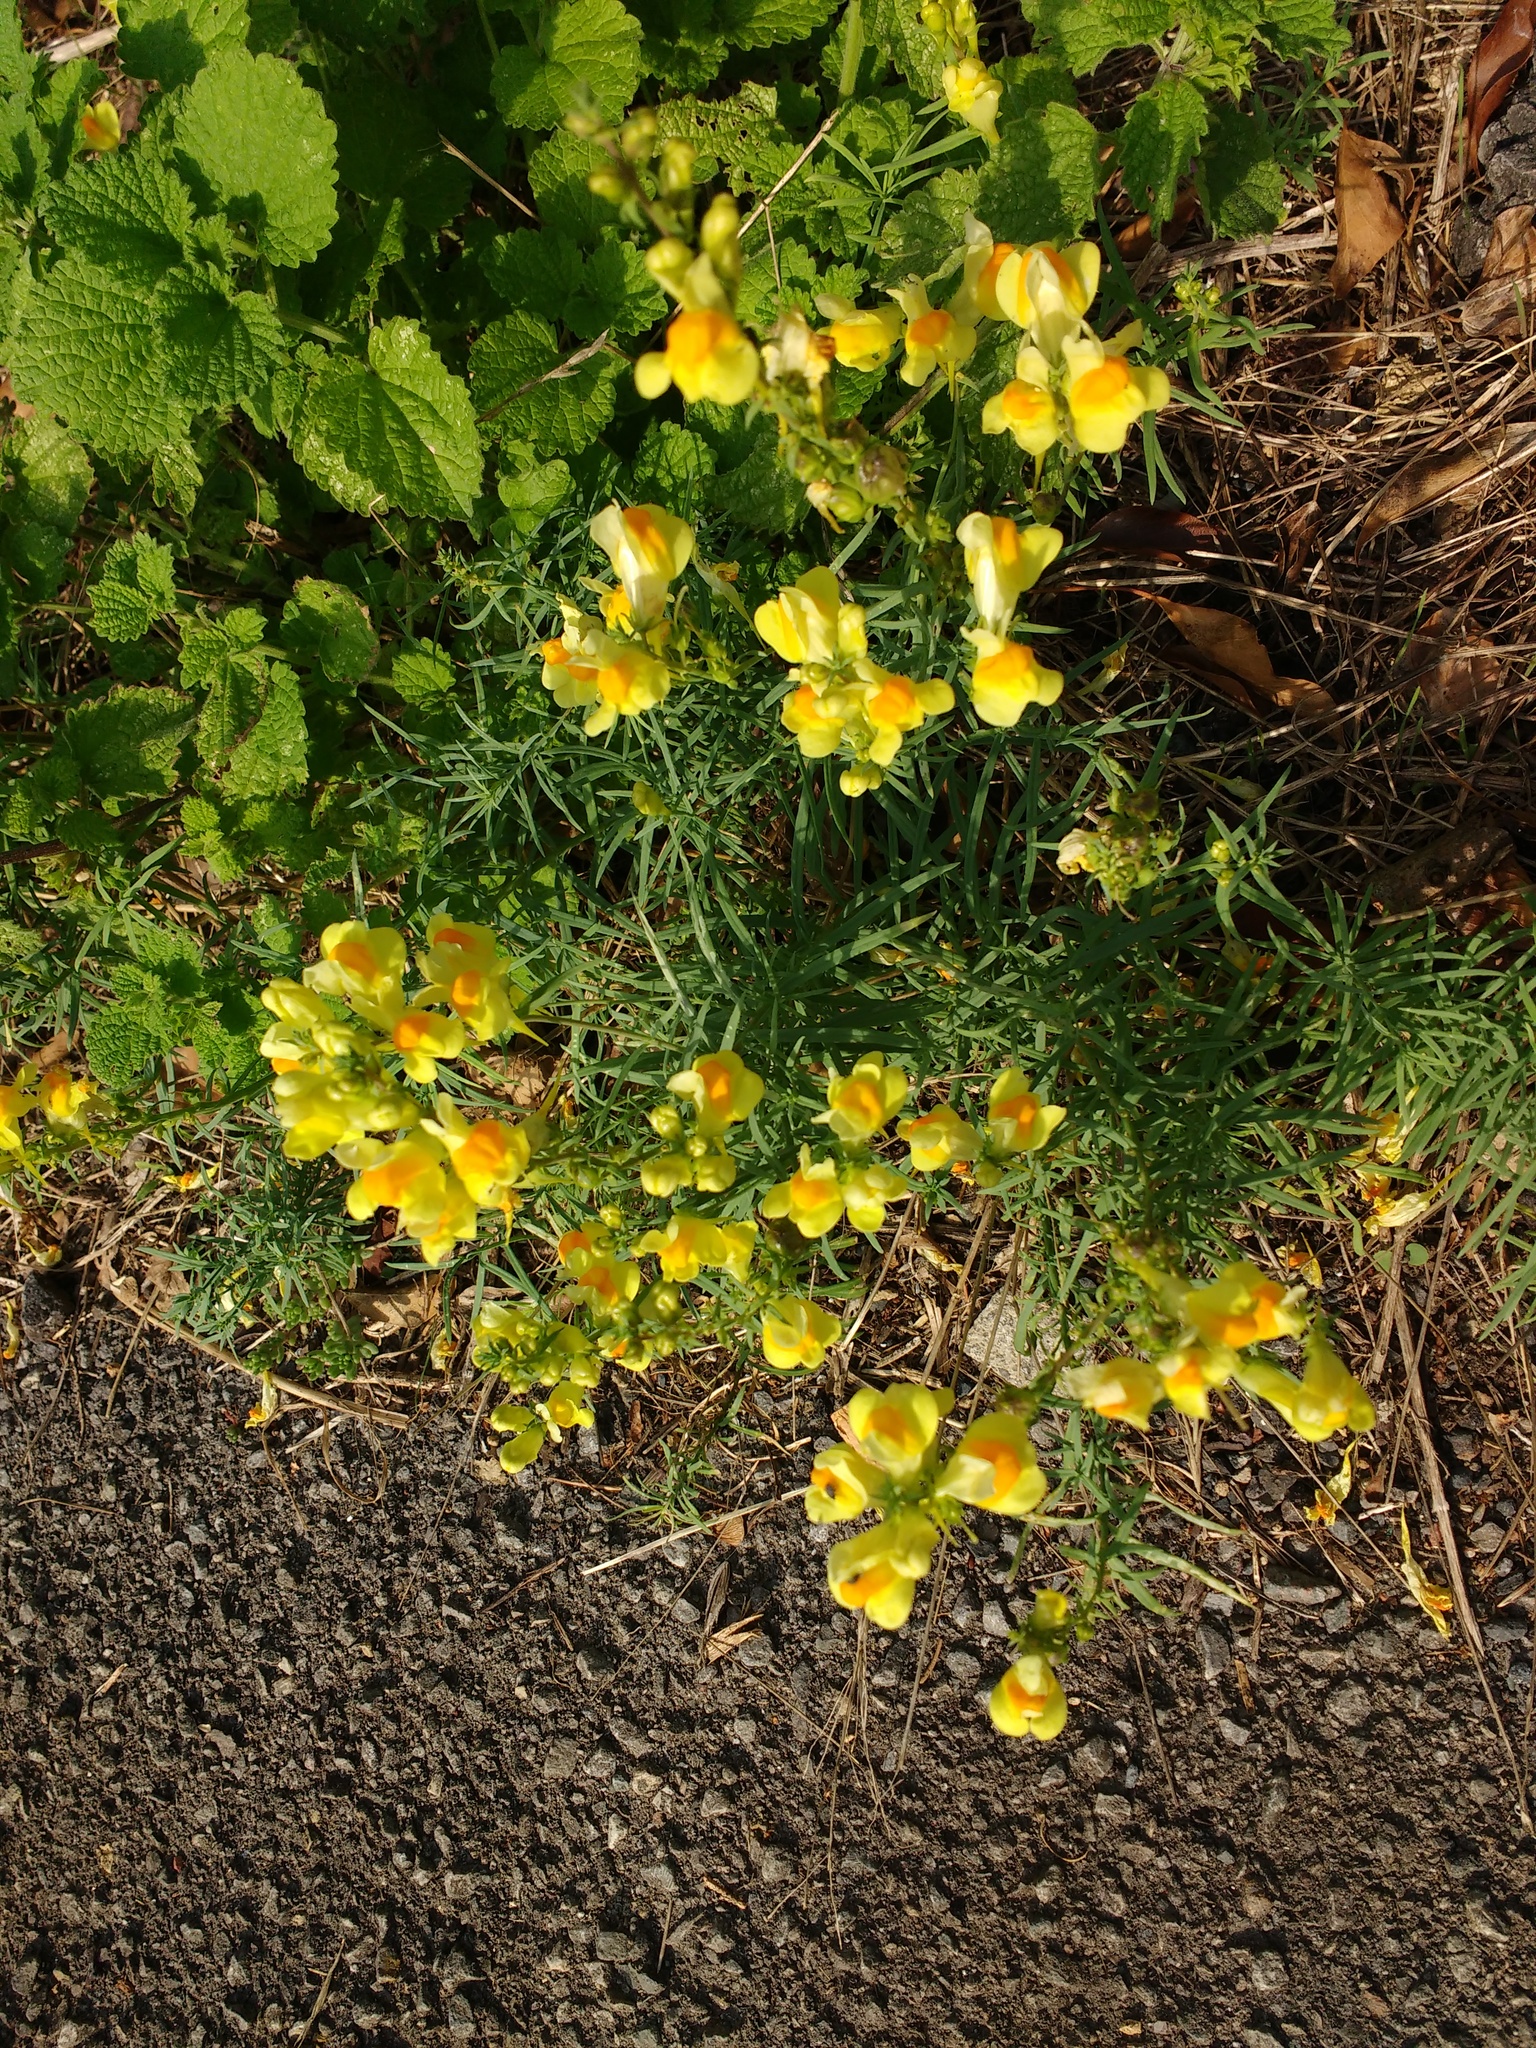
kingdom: Plantae
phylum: Tracheophyta
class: Magnoliopsida
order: Lamiales
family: Plantaginaceae
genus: Linaria
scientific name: Linaria vulgaris
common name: Butter and eggs
